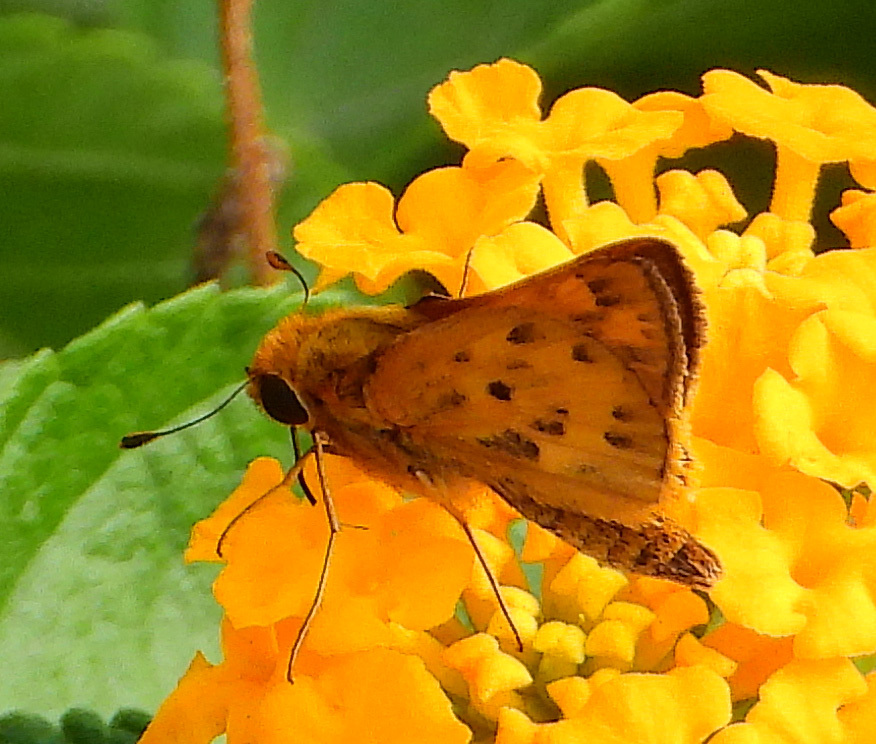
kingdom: Animalia
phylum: Arthropoda
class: Insecta
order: Lepidoptera
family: Hesperiidae
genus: Hylephila
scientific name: Hylephila phyleus
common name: Fiery skipper
